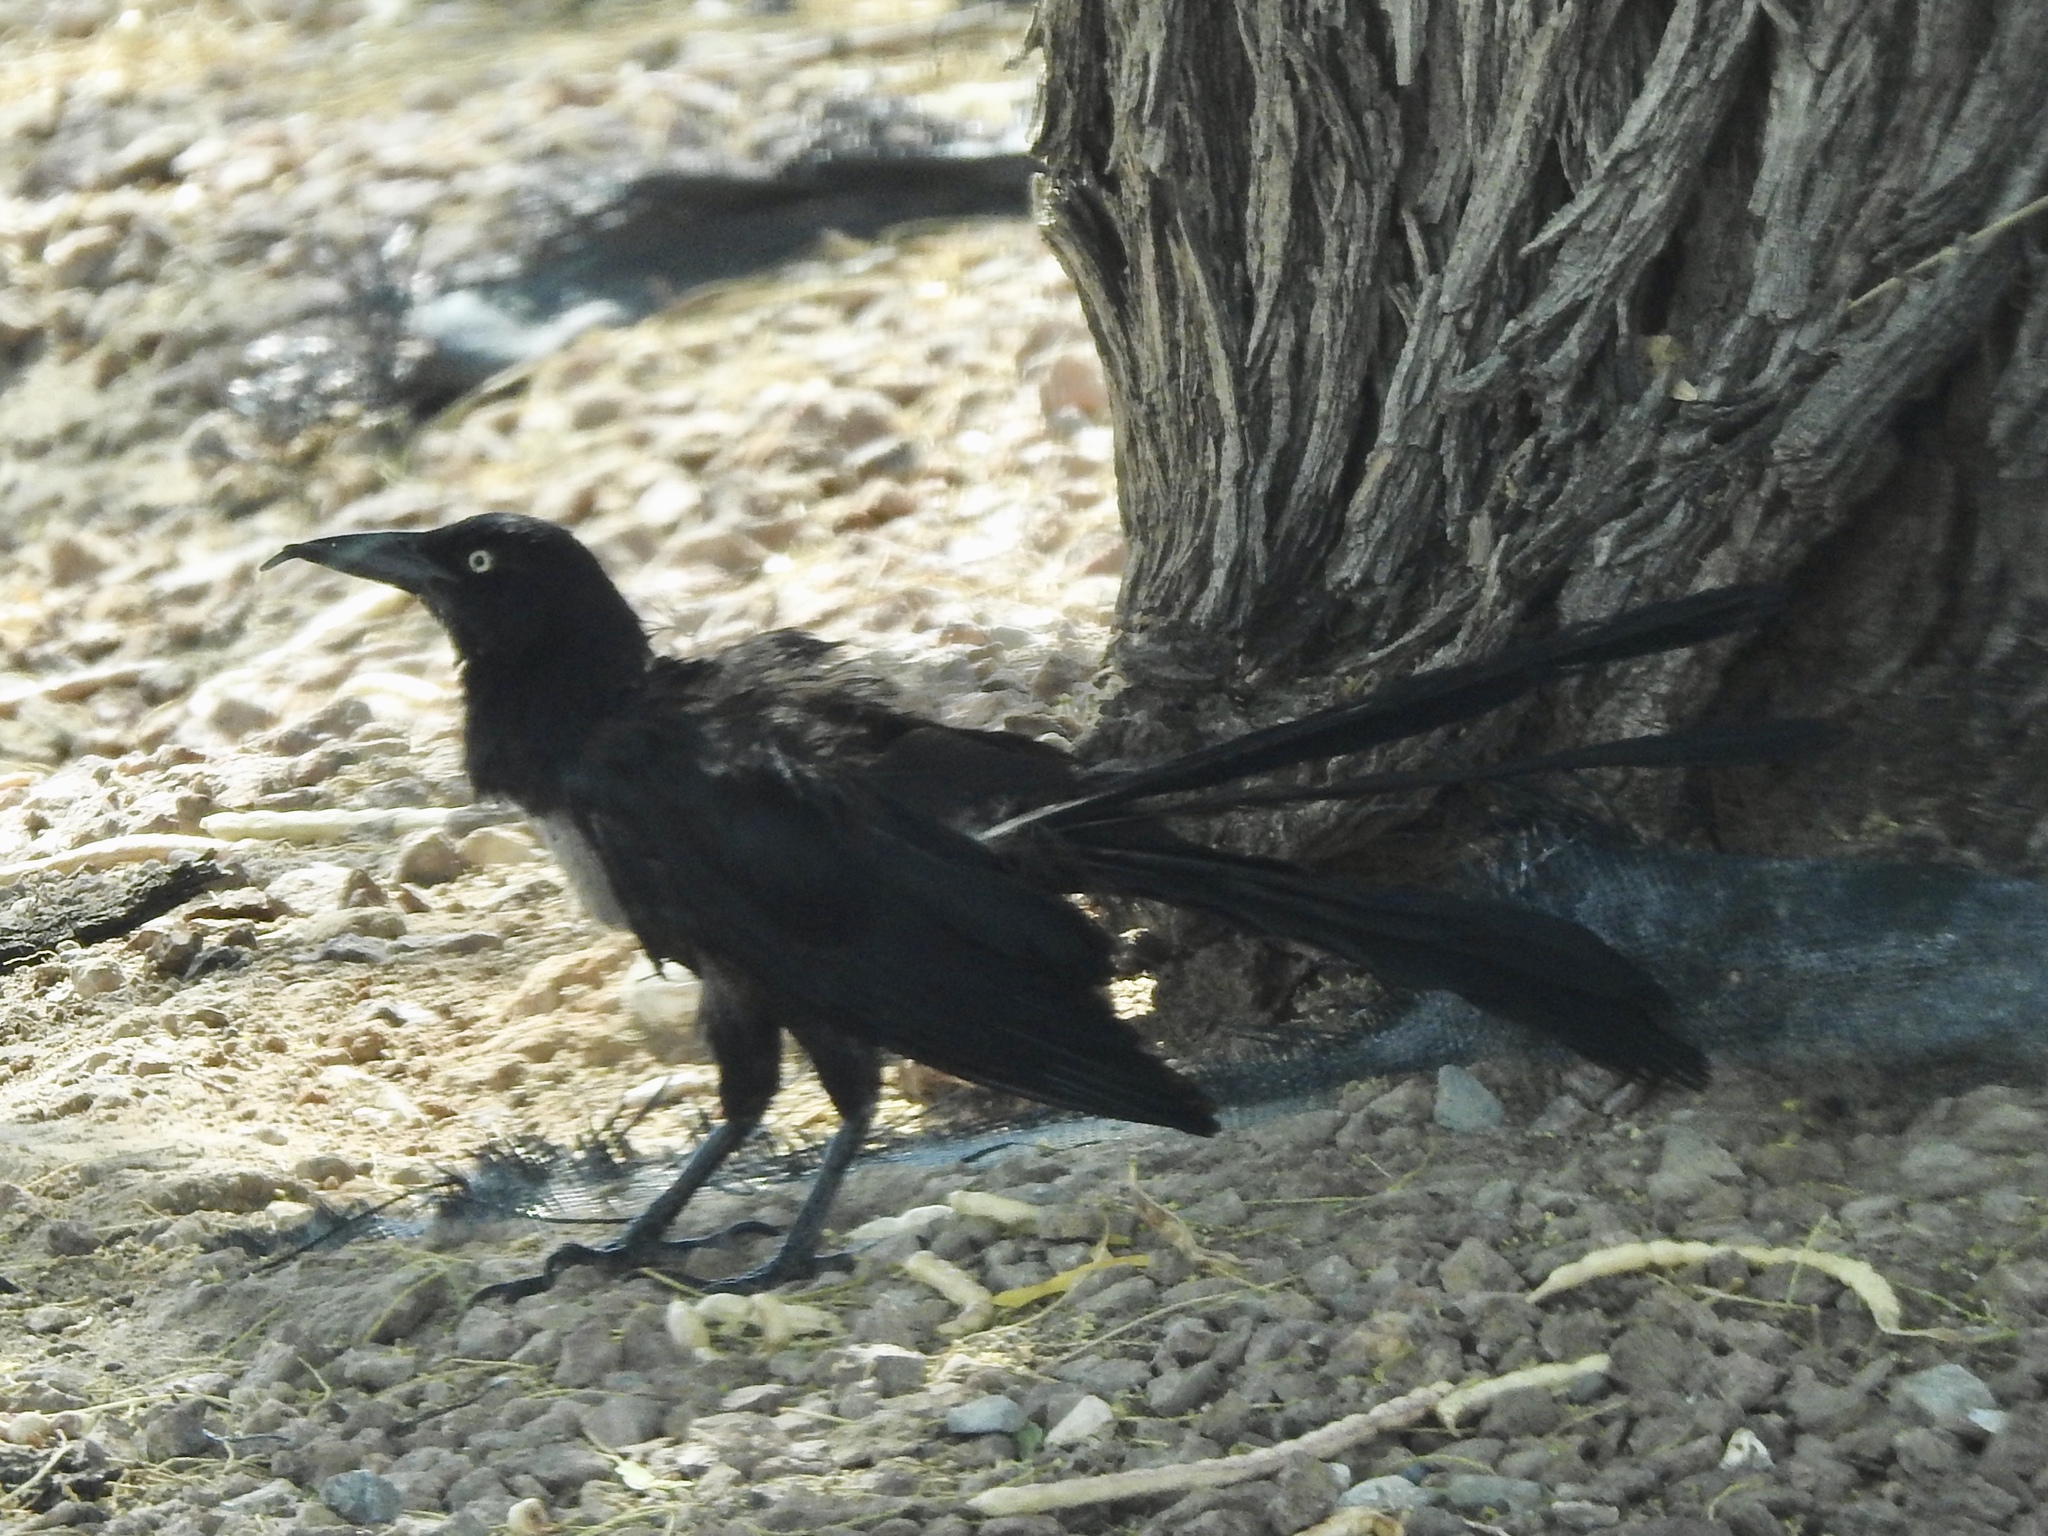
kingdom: Animalia
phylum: Chordata
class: Aves
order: Passeriformes
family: Icteridae
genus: Quiscalus
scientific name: Quiscalus mexicanus
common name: Great-tailed grackle
